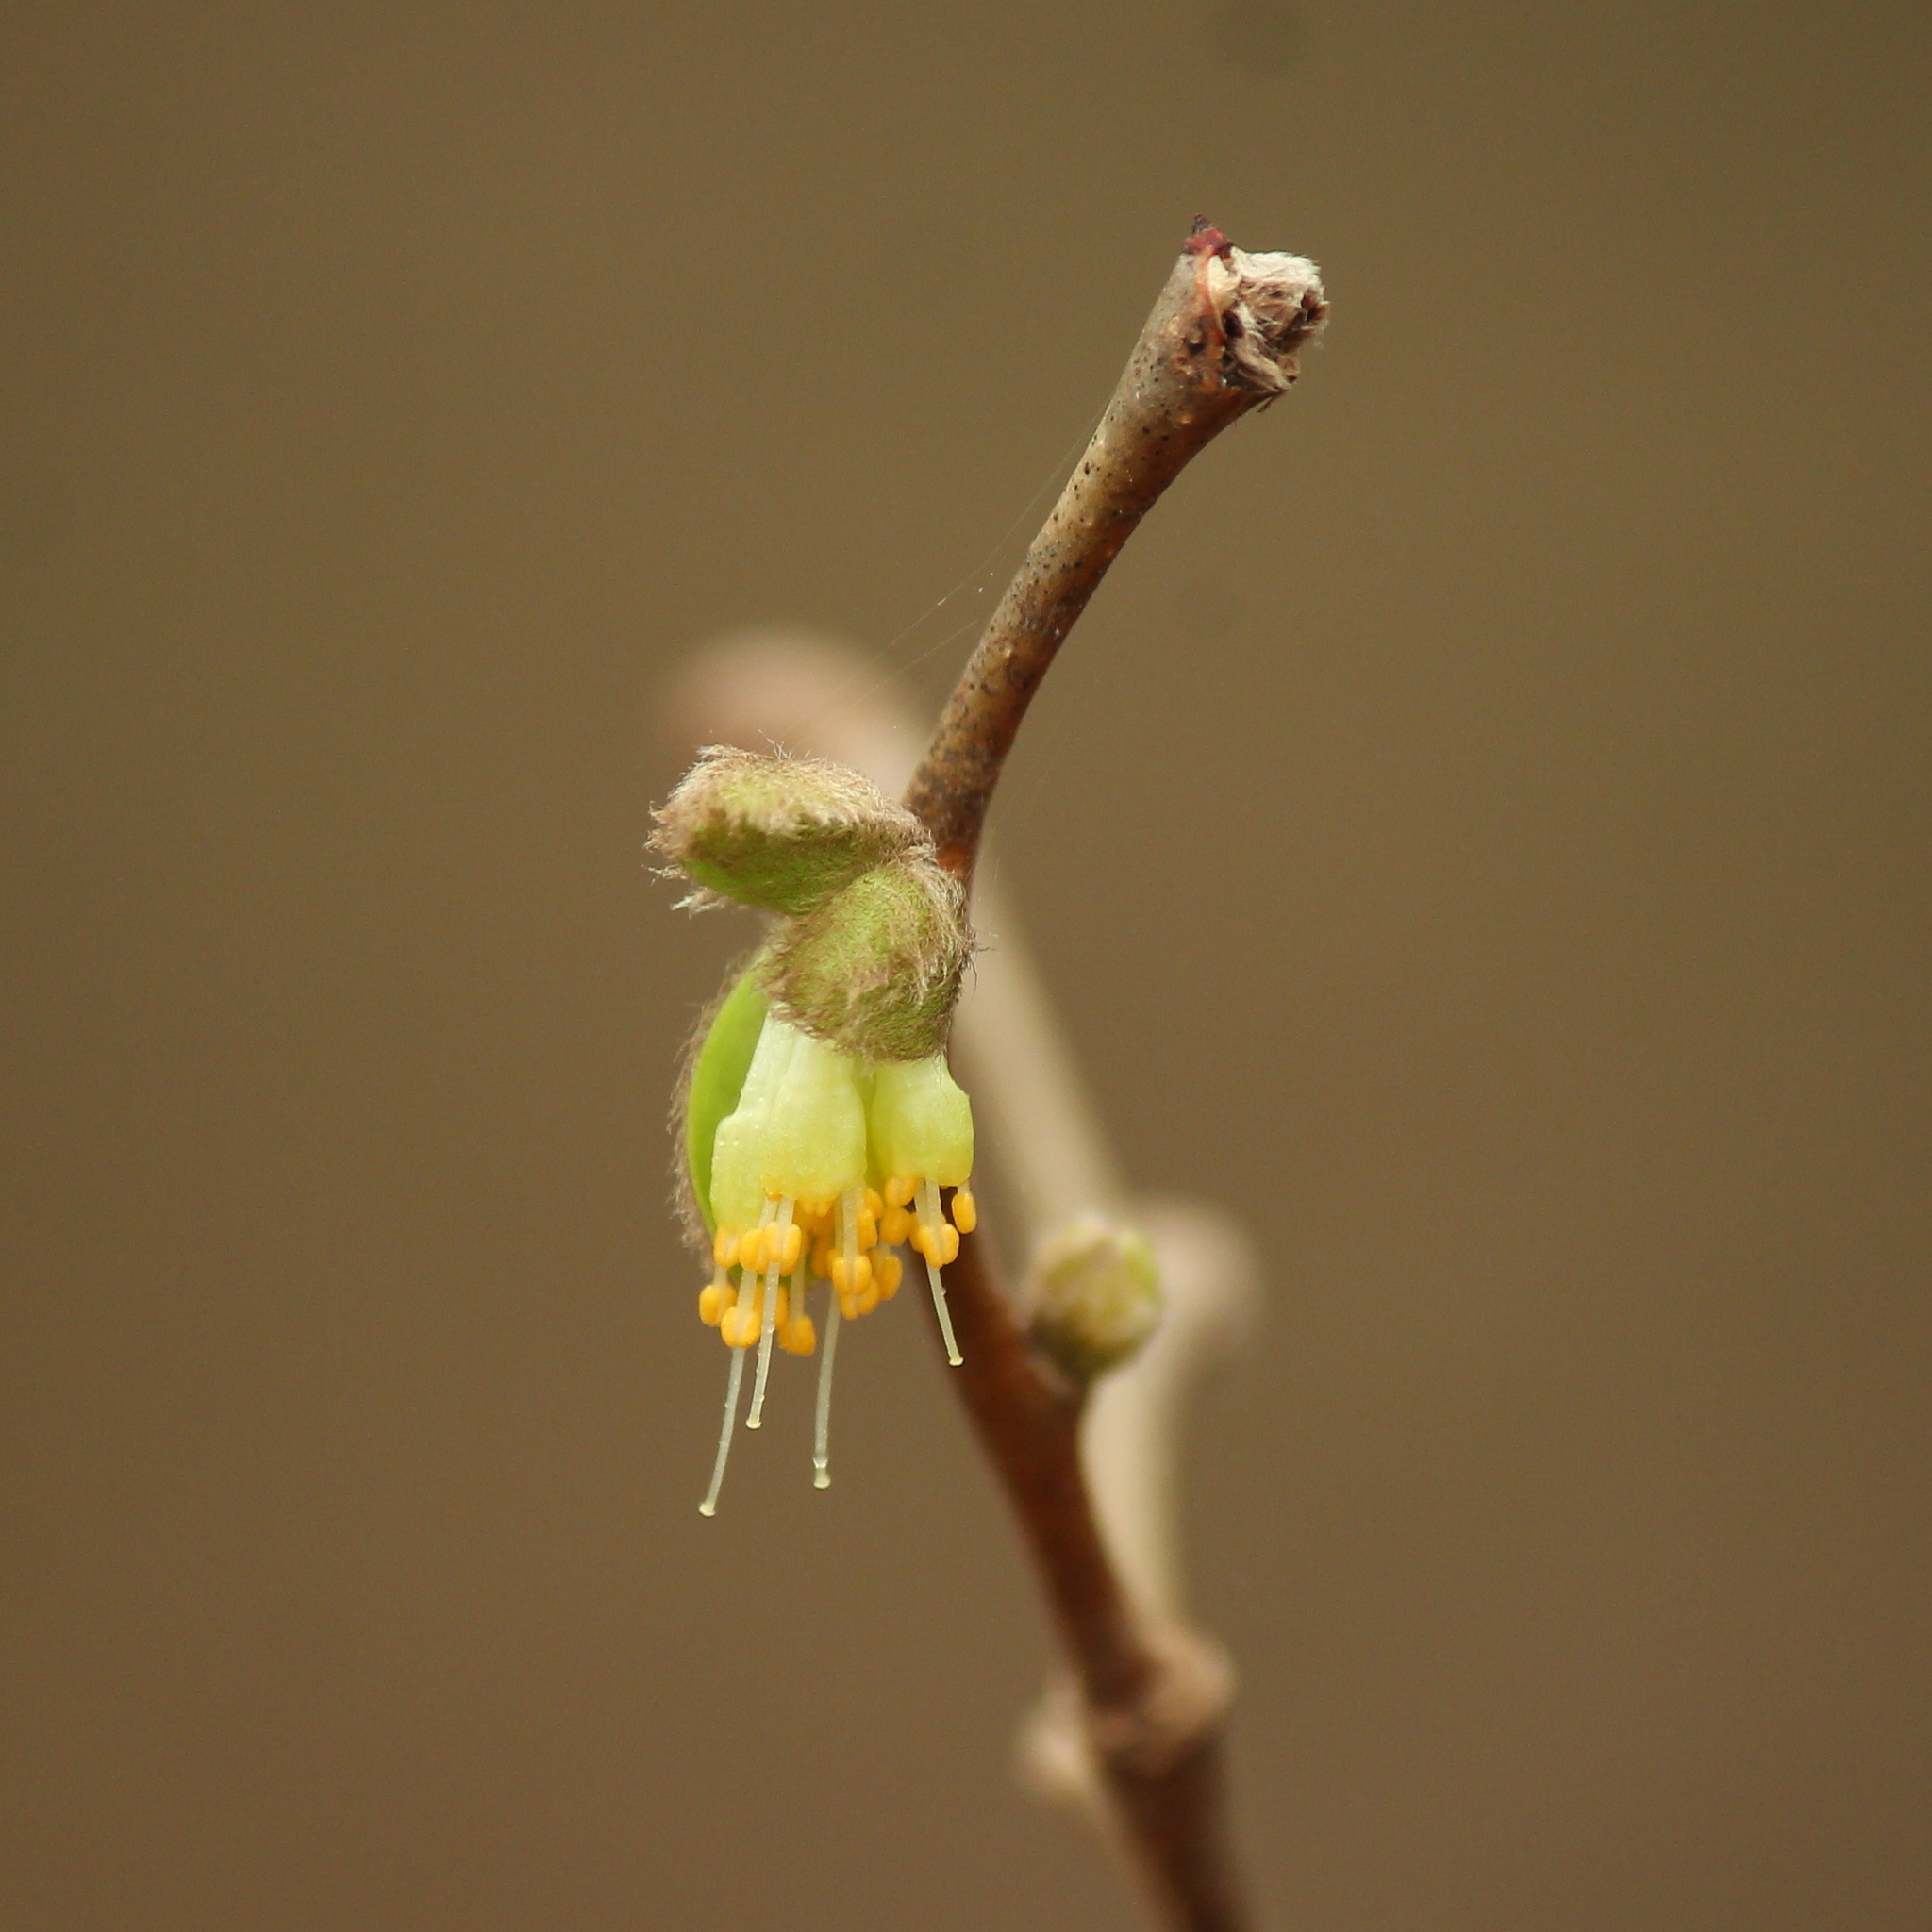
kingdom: Plantae
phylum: Tracheophyta
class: Magnoliopsida
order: Malvales
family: Thymelaeaceae
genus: Dirca
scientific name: Dirca palustris
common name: Leatherwood
